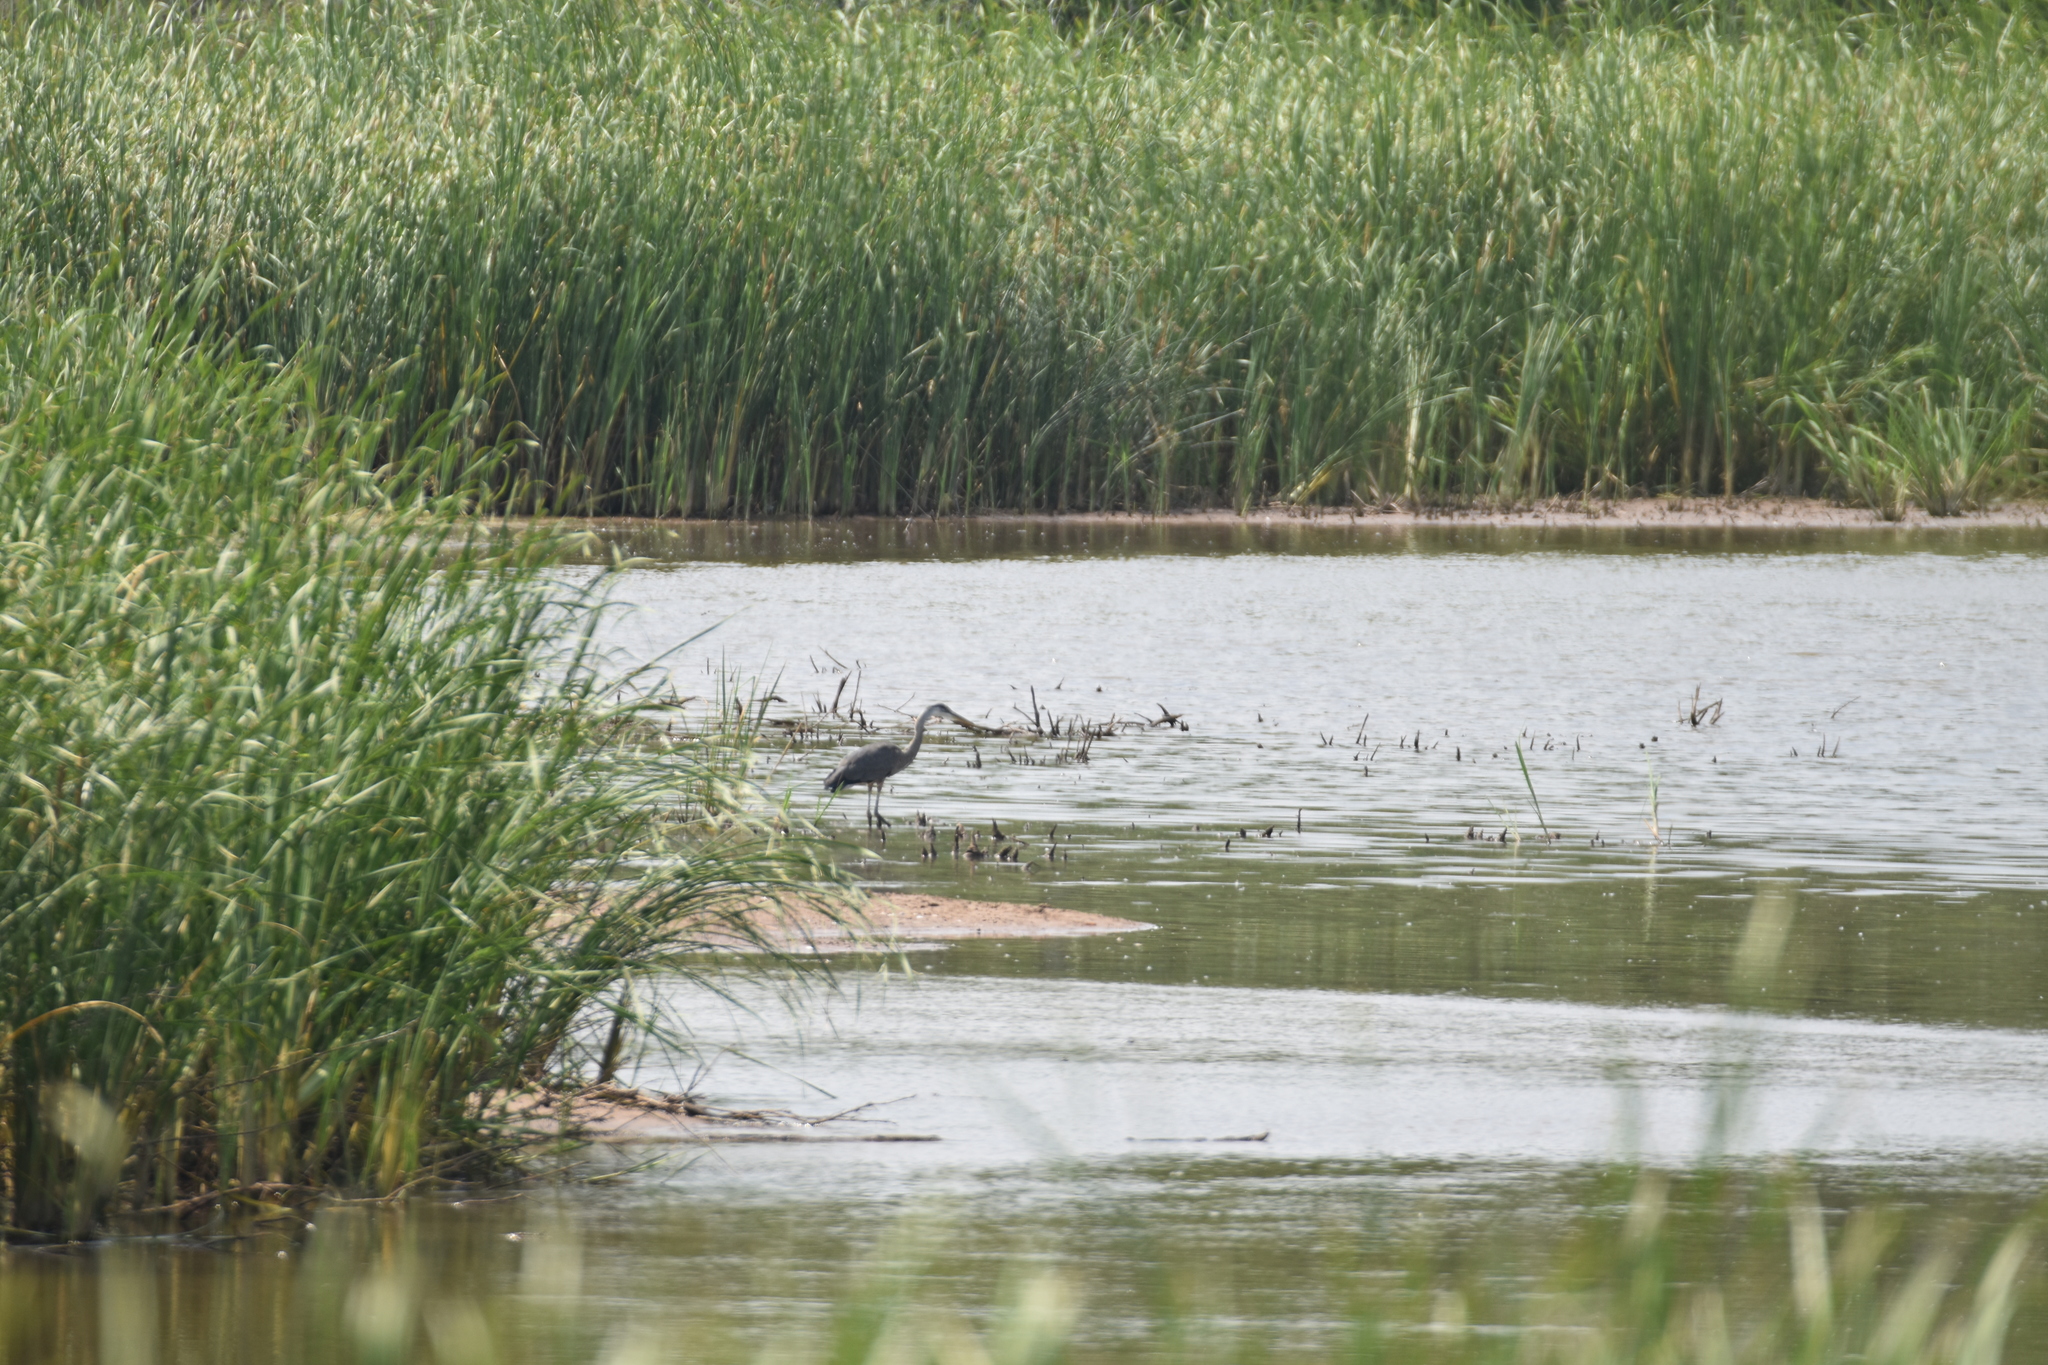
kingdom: Animalia
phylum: Chordata
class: Aves
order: Pelecaniformes
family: Ardeidae
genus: Ardea
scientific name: Ardea herodias
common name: Great blue heron
